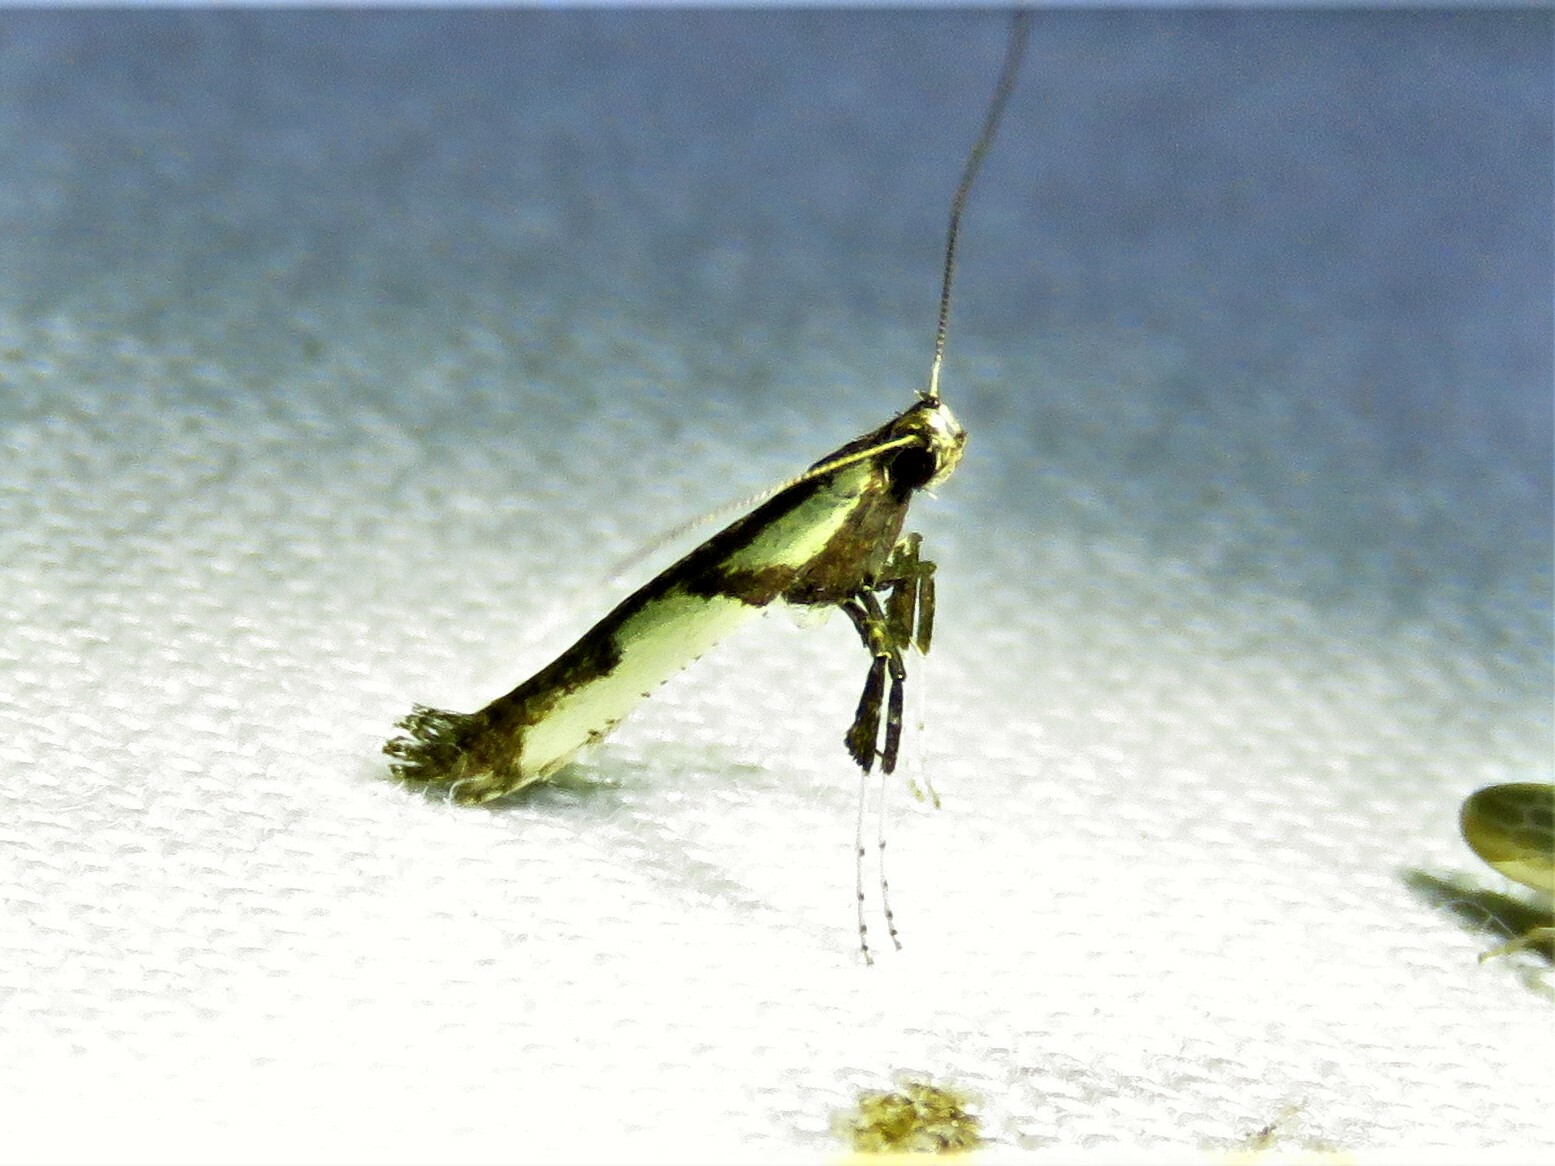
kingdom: Animalia
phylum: Arthropoda
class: Insecta
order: Lepidoptera
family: Gracillariidae
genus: Caloptilia
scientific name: Caloptilia blandella
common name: Walnut caloptilia moth
